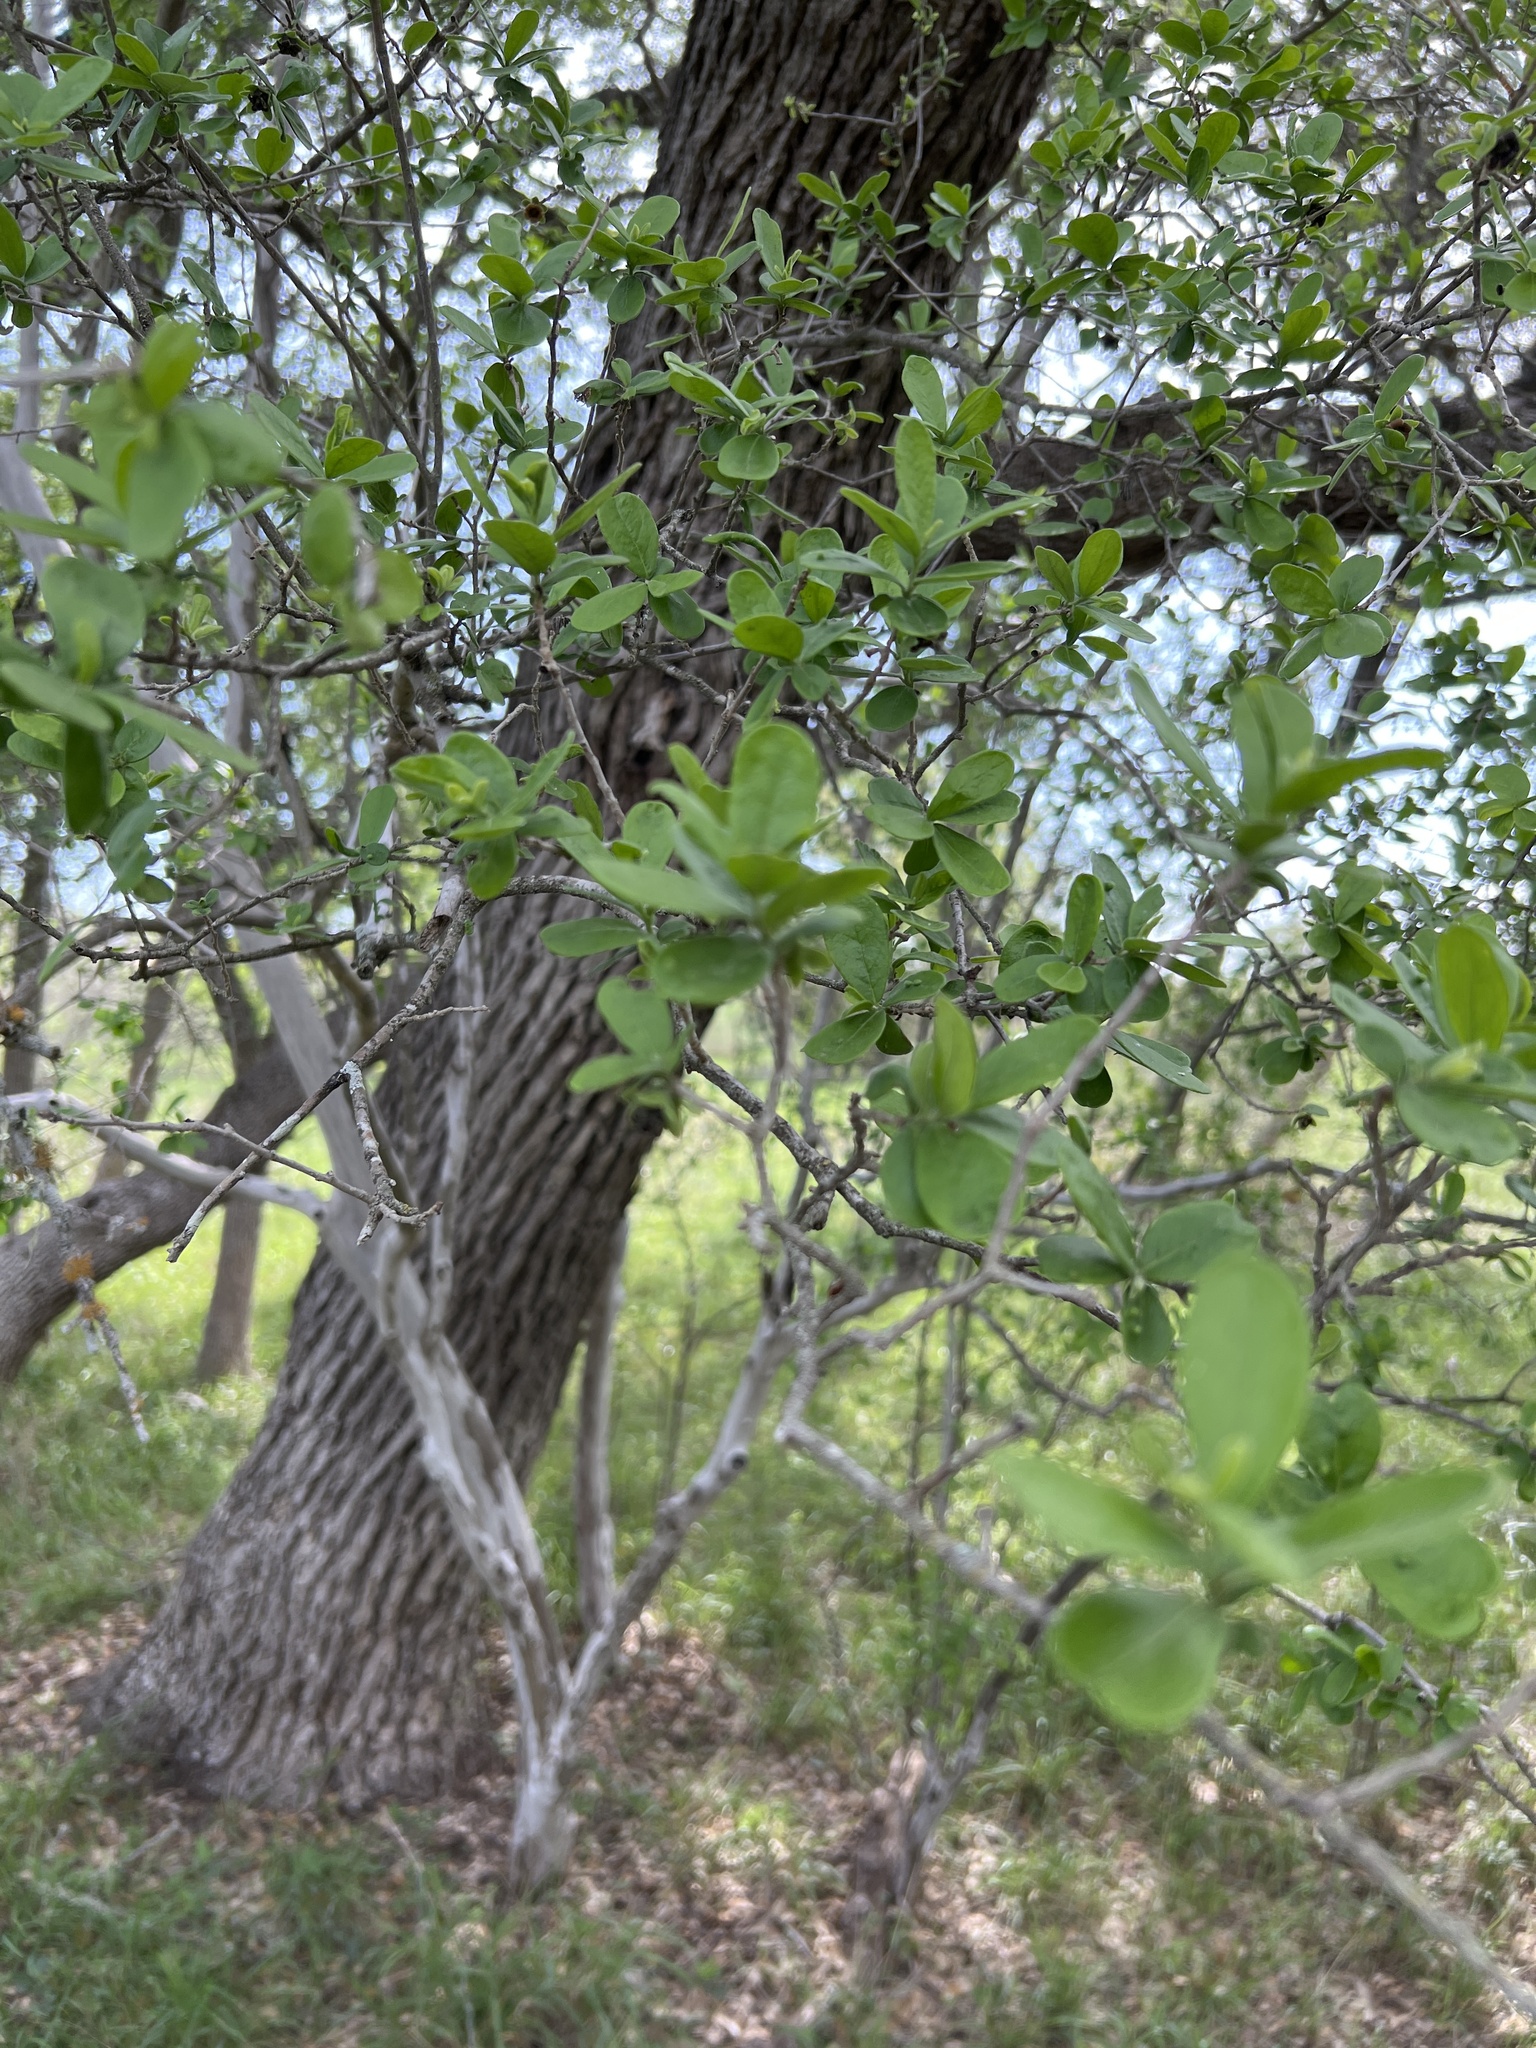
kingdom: Plantae
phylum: Tracheophyta
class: Magnoliopsida
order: Ericales
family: Ebenaceae
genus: Diospyros
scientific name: Diospyros texana
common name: Texas persimmon
